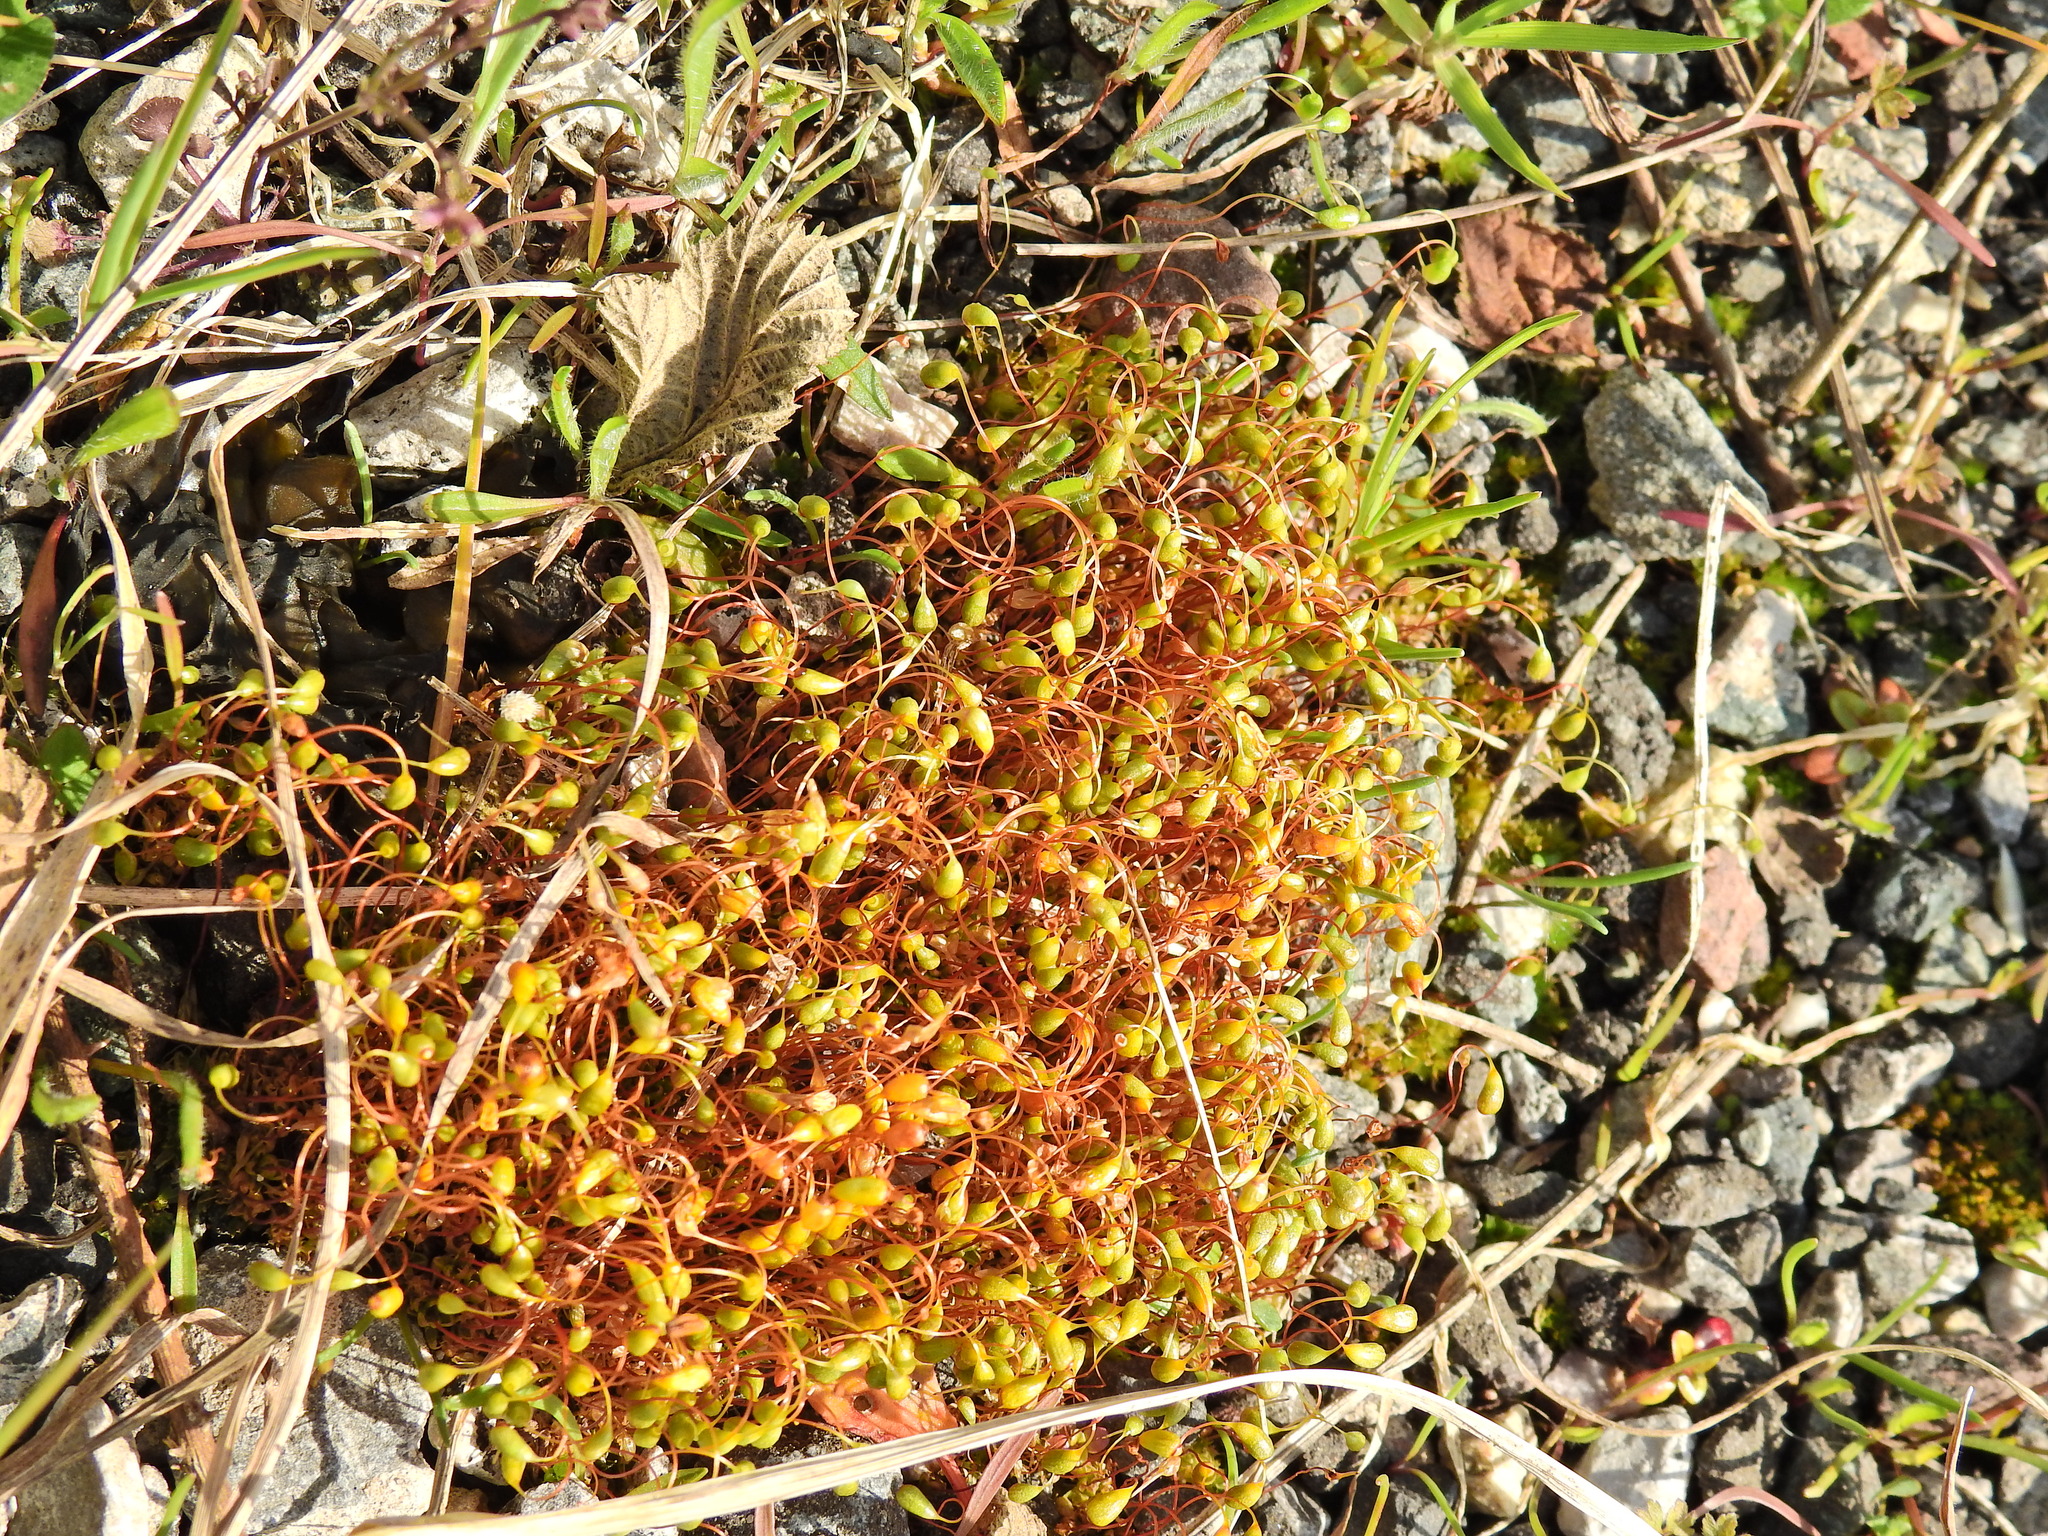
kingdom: Plantae
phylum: Bryophyta
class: Bryopsida
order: Funariales
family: Funariaceae
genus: Funaria
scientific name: Funaria hygrometrica
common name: Common cord moss
